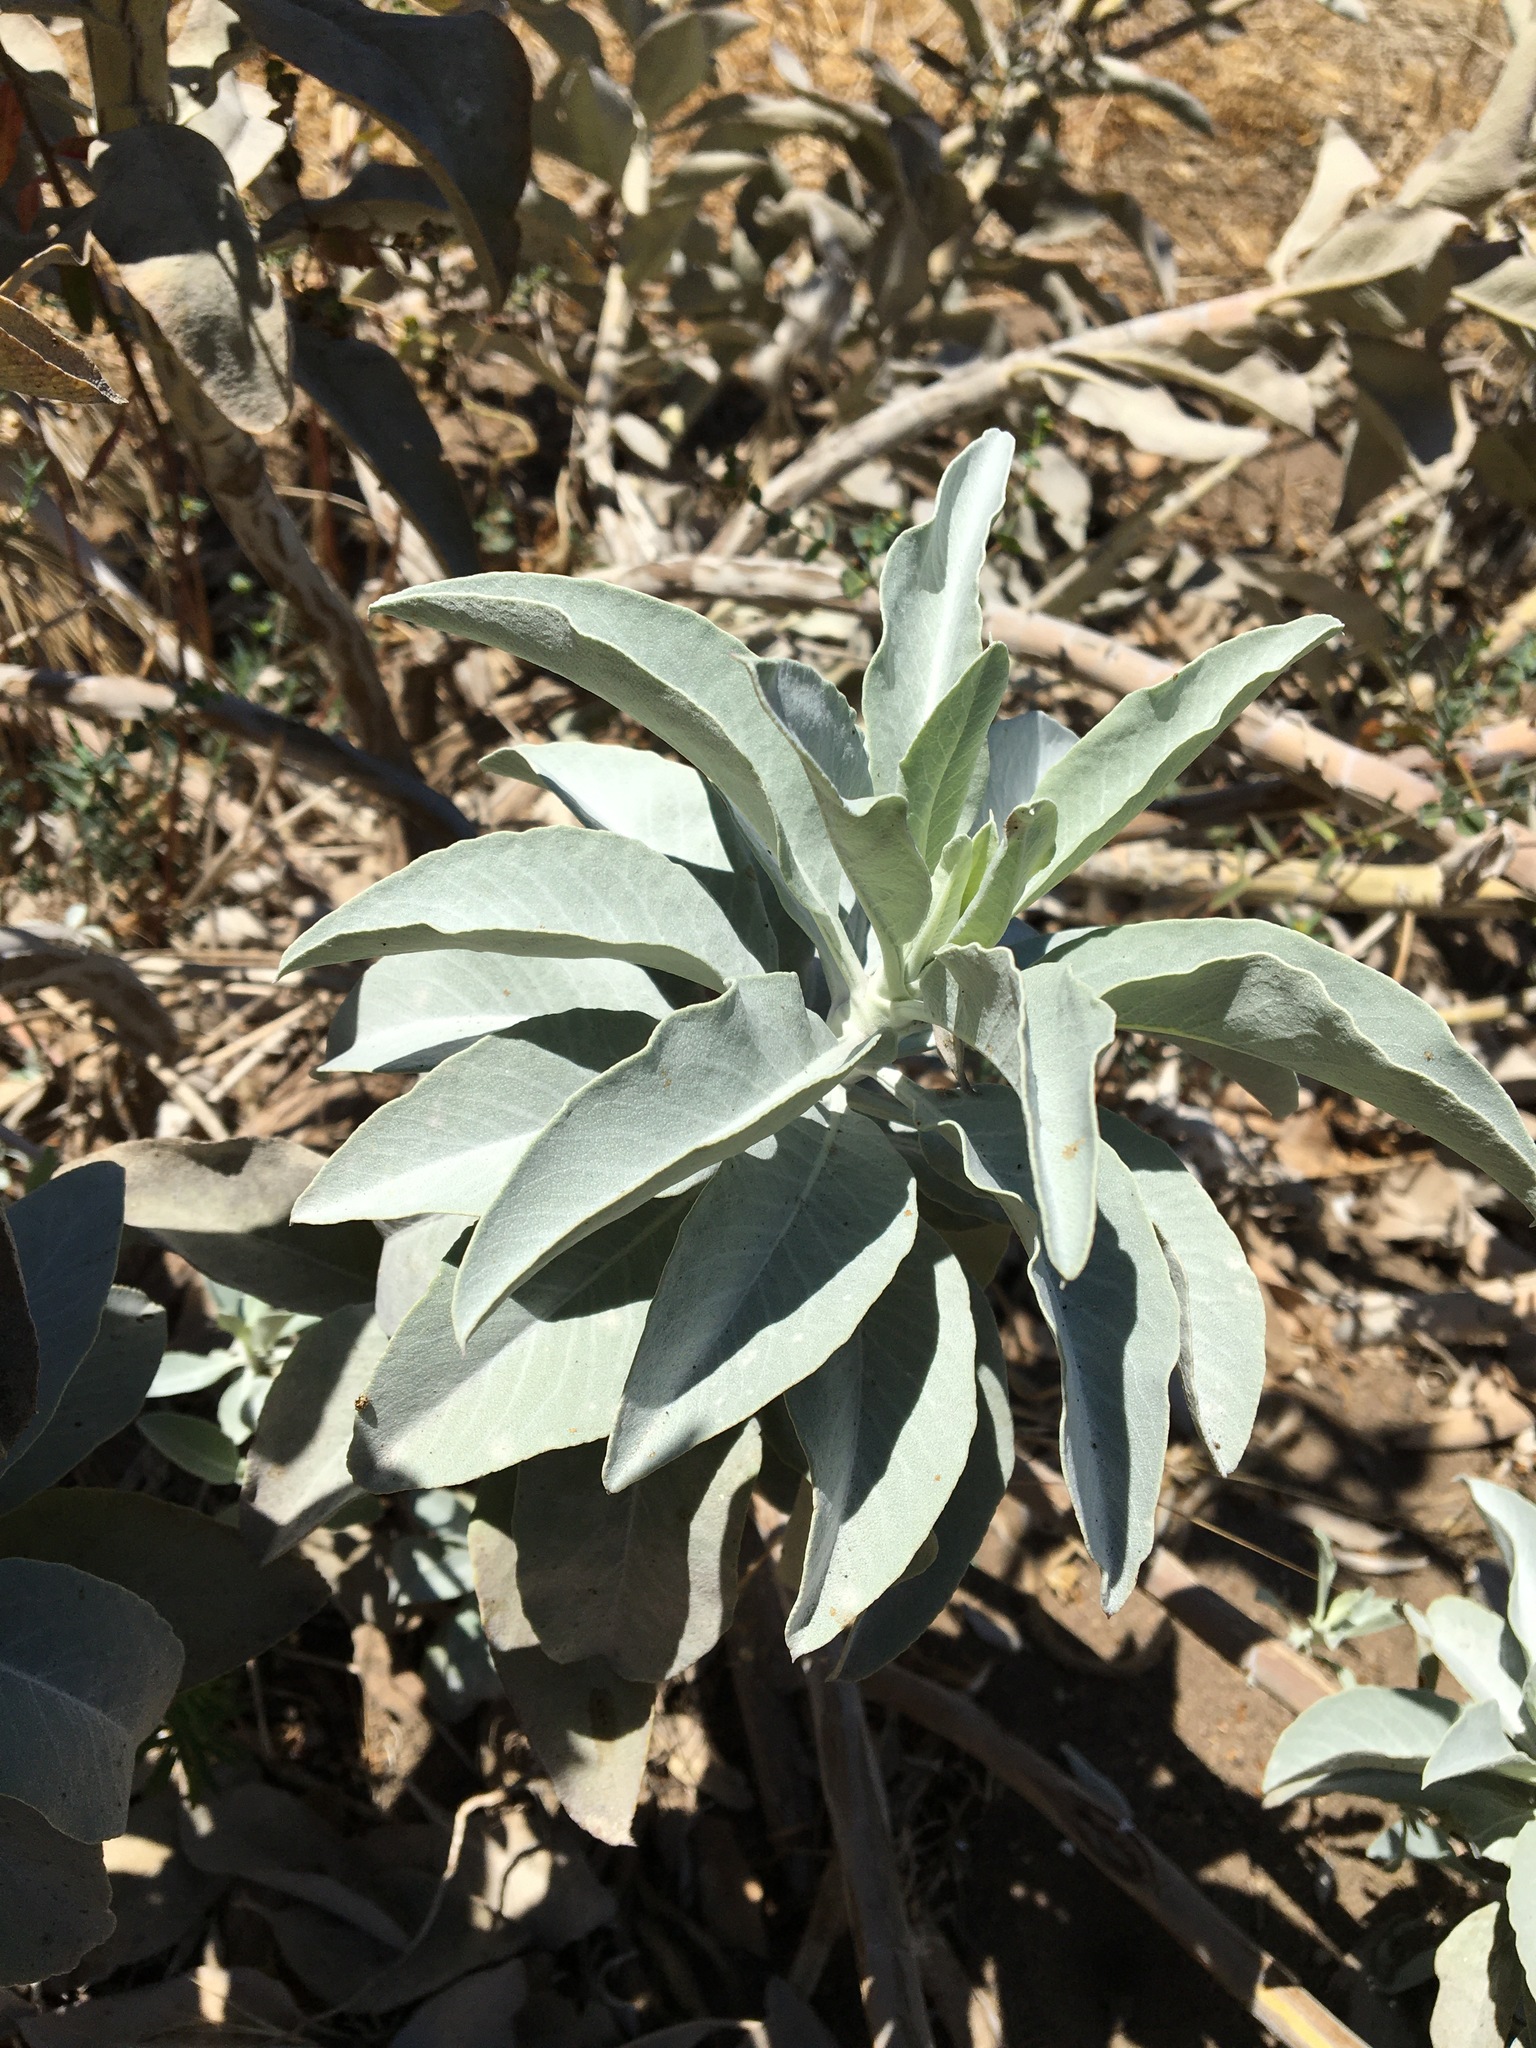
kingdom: Plantae
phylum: Tracheophyta
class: Magnoliopsida
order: Lamiales
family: Lamiaceae
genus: Salvia
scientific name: Salvia apiana
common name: White sage
